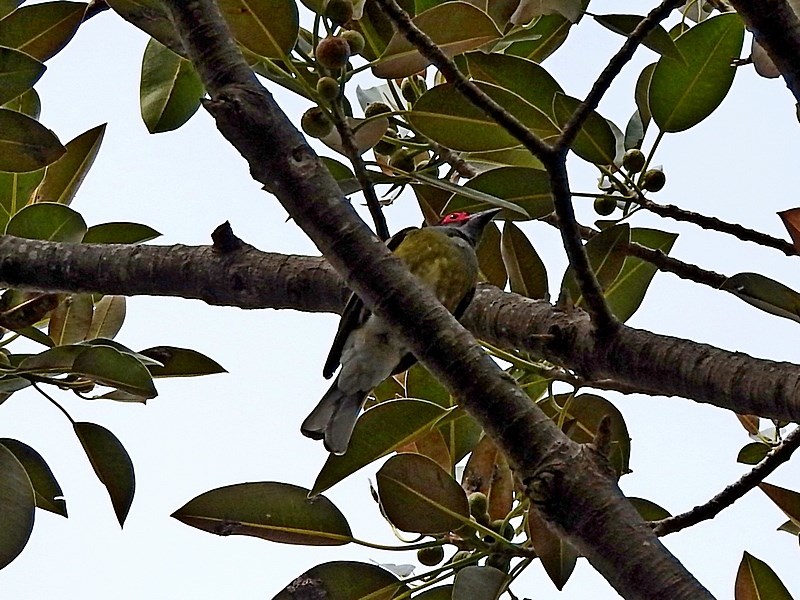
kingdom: Animalia
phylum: Chordata
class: Aves
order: Passeriformes
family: Oriolidae
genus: Sphecotheres
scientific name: Sphecotheres vieilloti
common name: Australasian figbird
